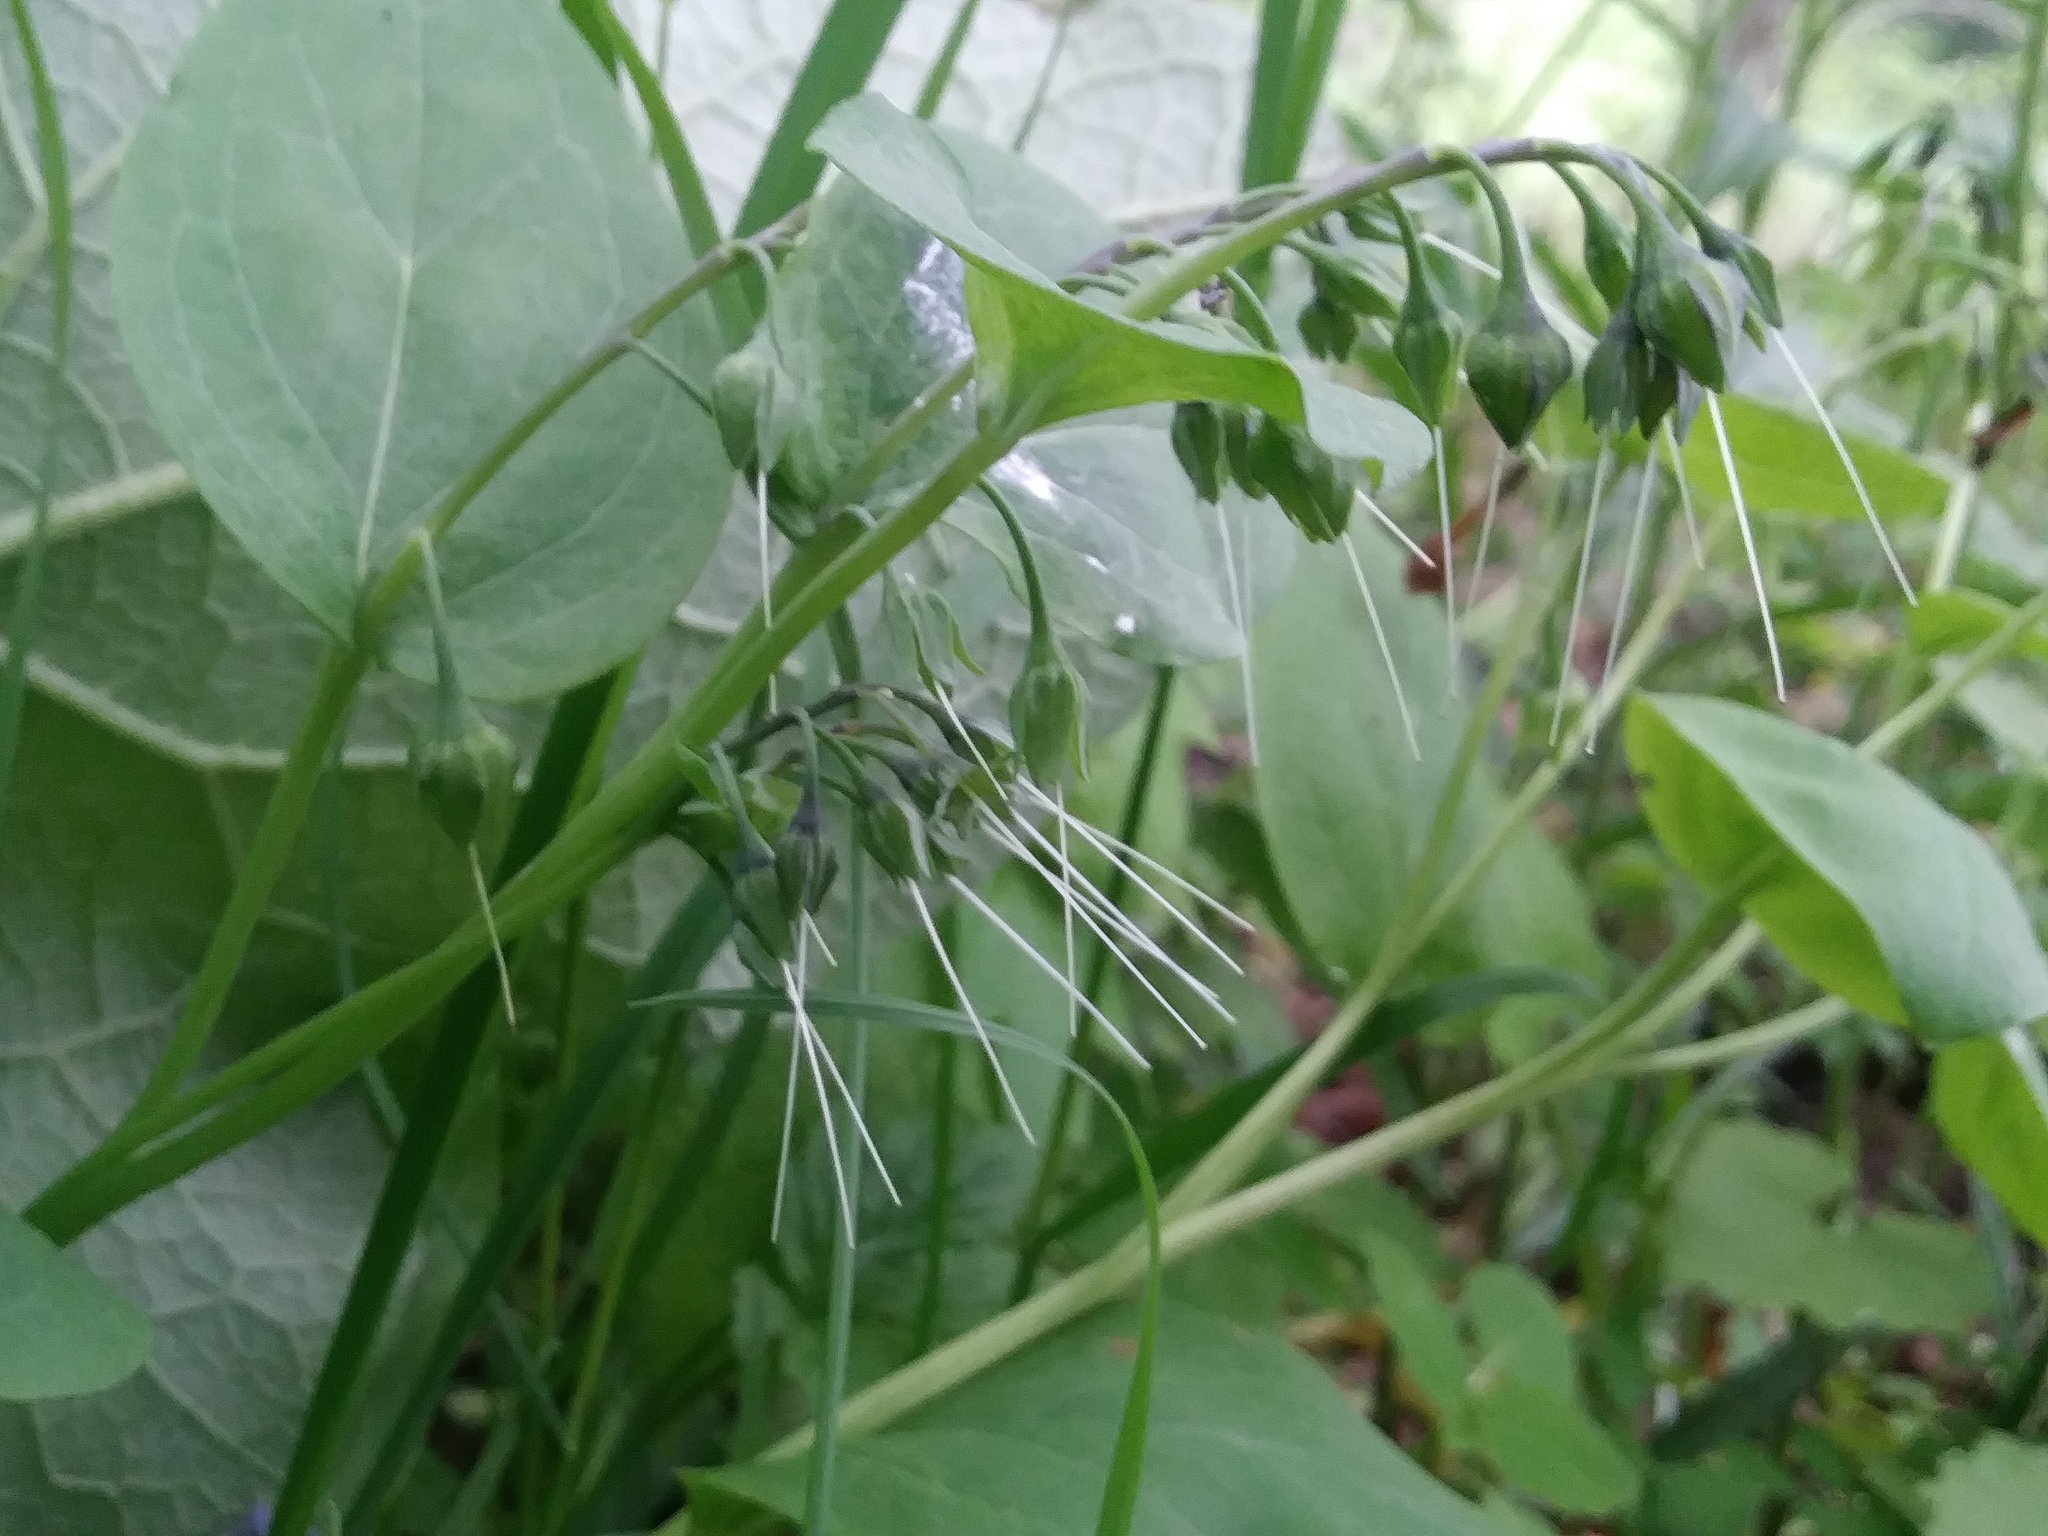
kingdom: Plantae
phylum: Tracheophyta
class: Magnoliopsida
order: Boraginales
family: Boraginaceae
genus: Mertensia
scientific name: Mertensia virginica
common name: Virginia bluebells
